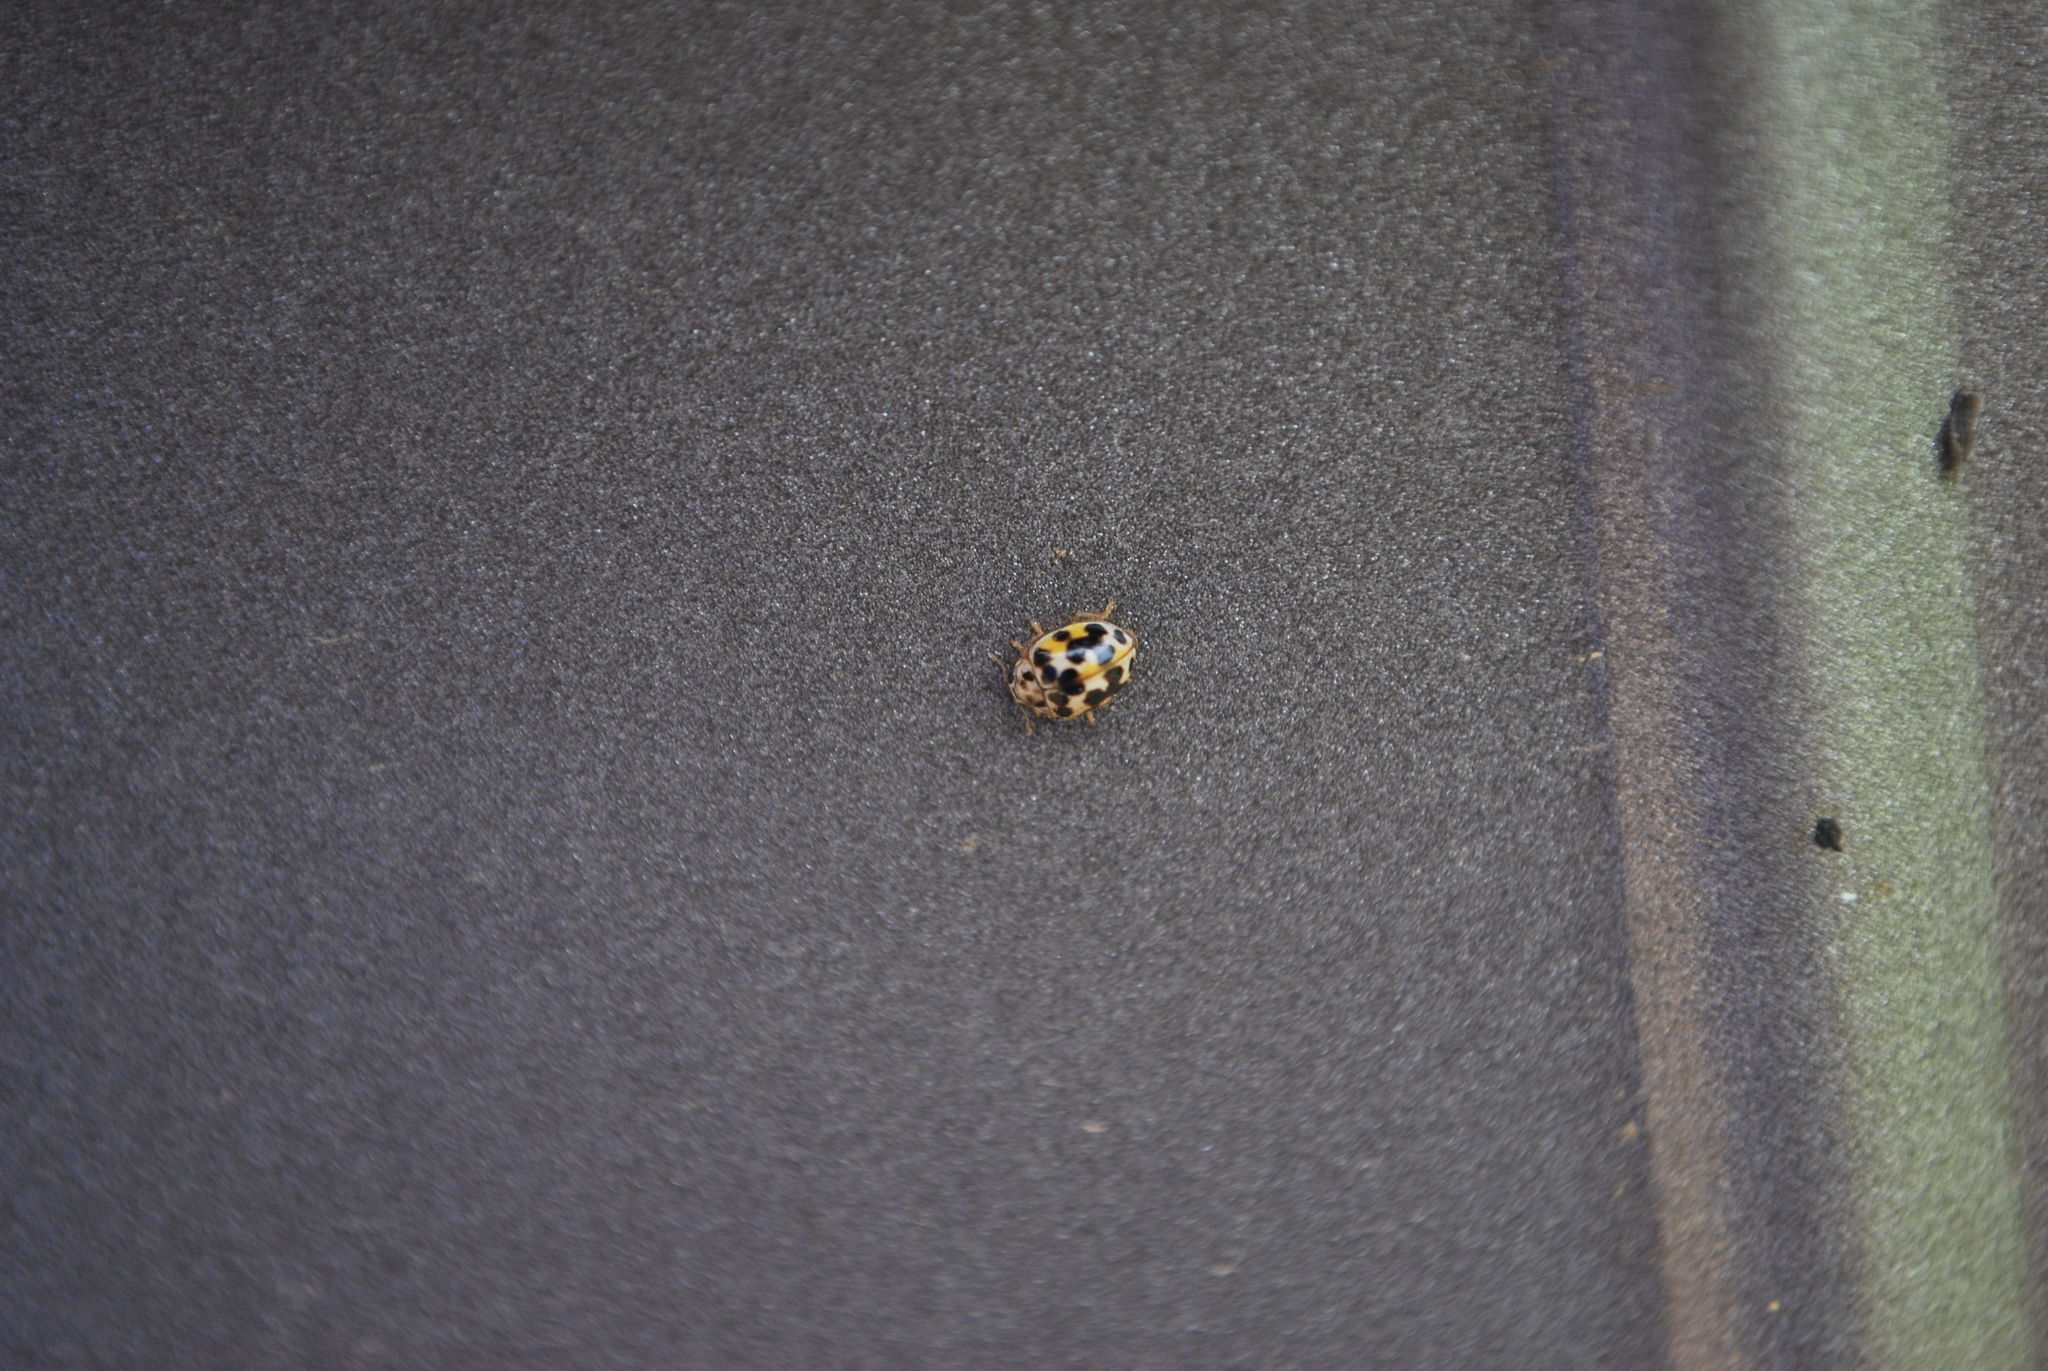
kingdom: Animalia
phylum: Arthropoda
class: Insecta
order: Coleoptera
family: Coccinellidae
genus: Psyllobora
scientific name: Psyllobora vigintimaculata
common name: Ladybird beetle
